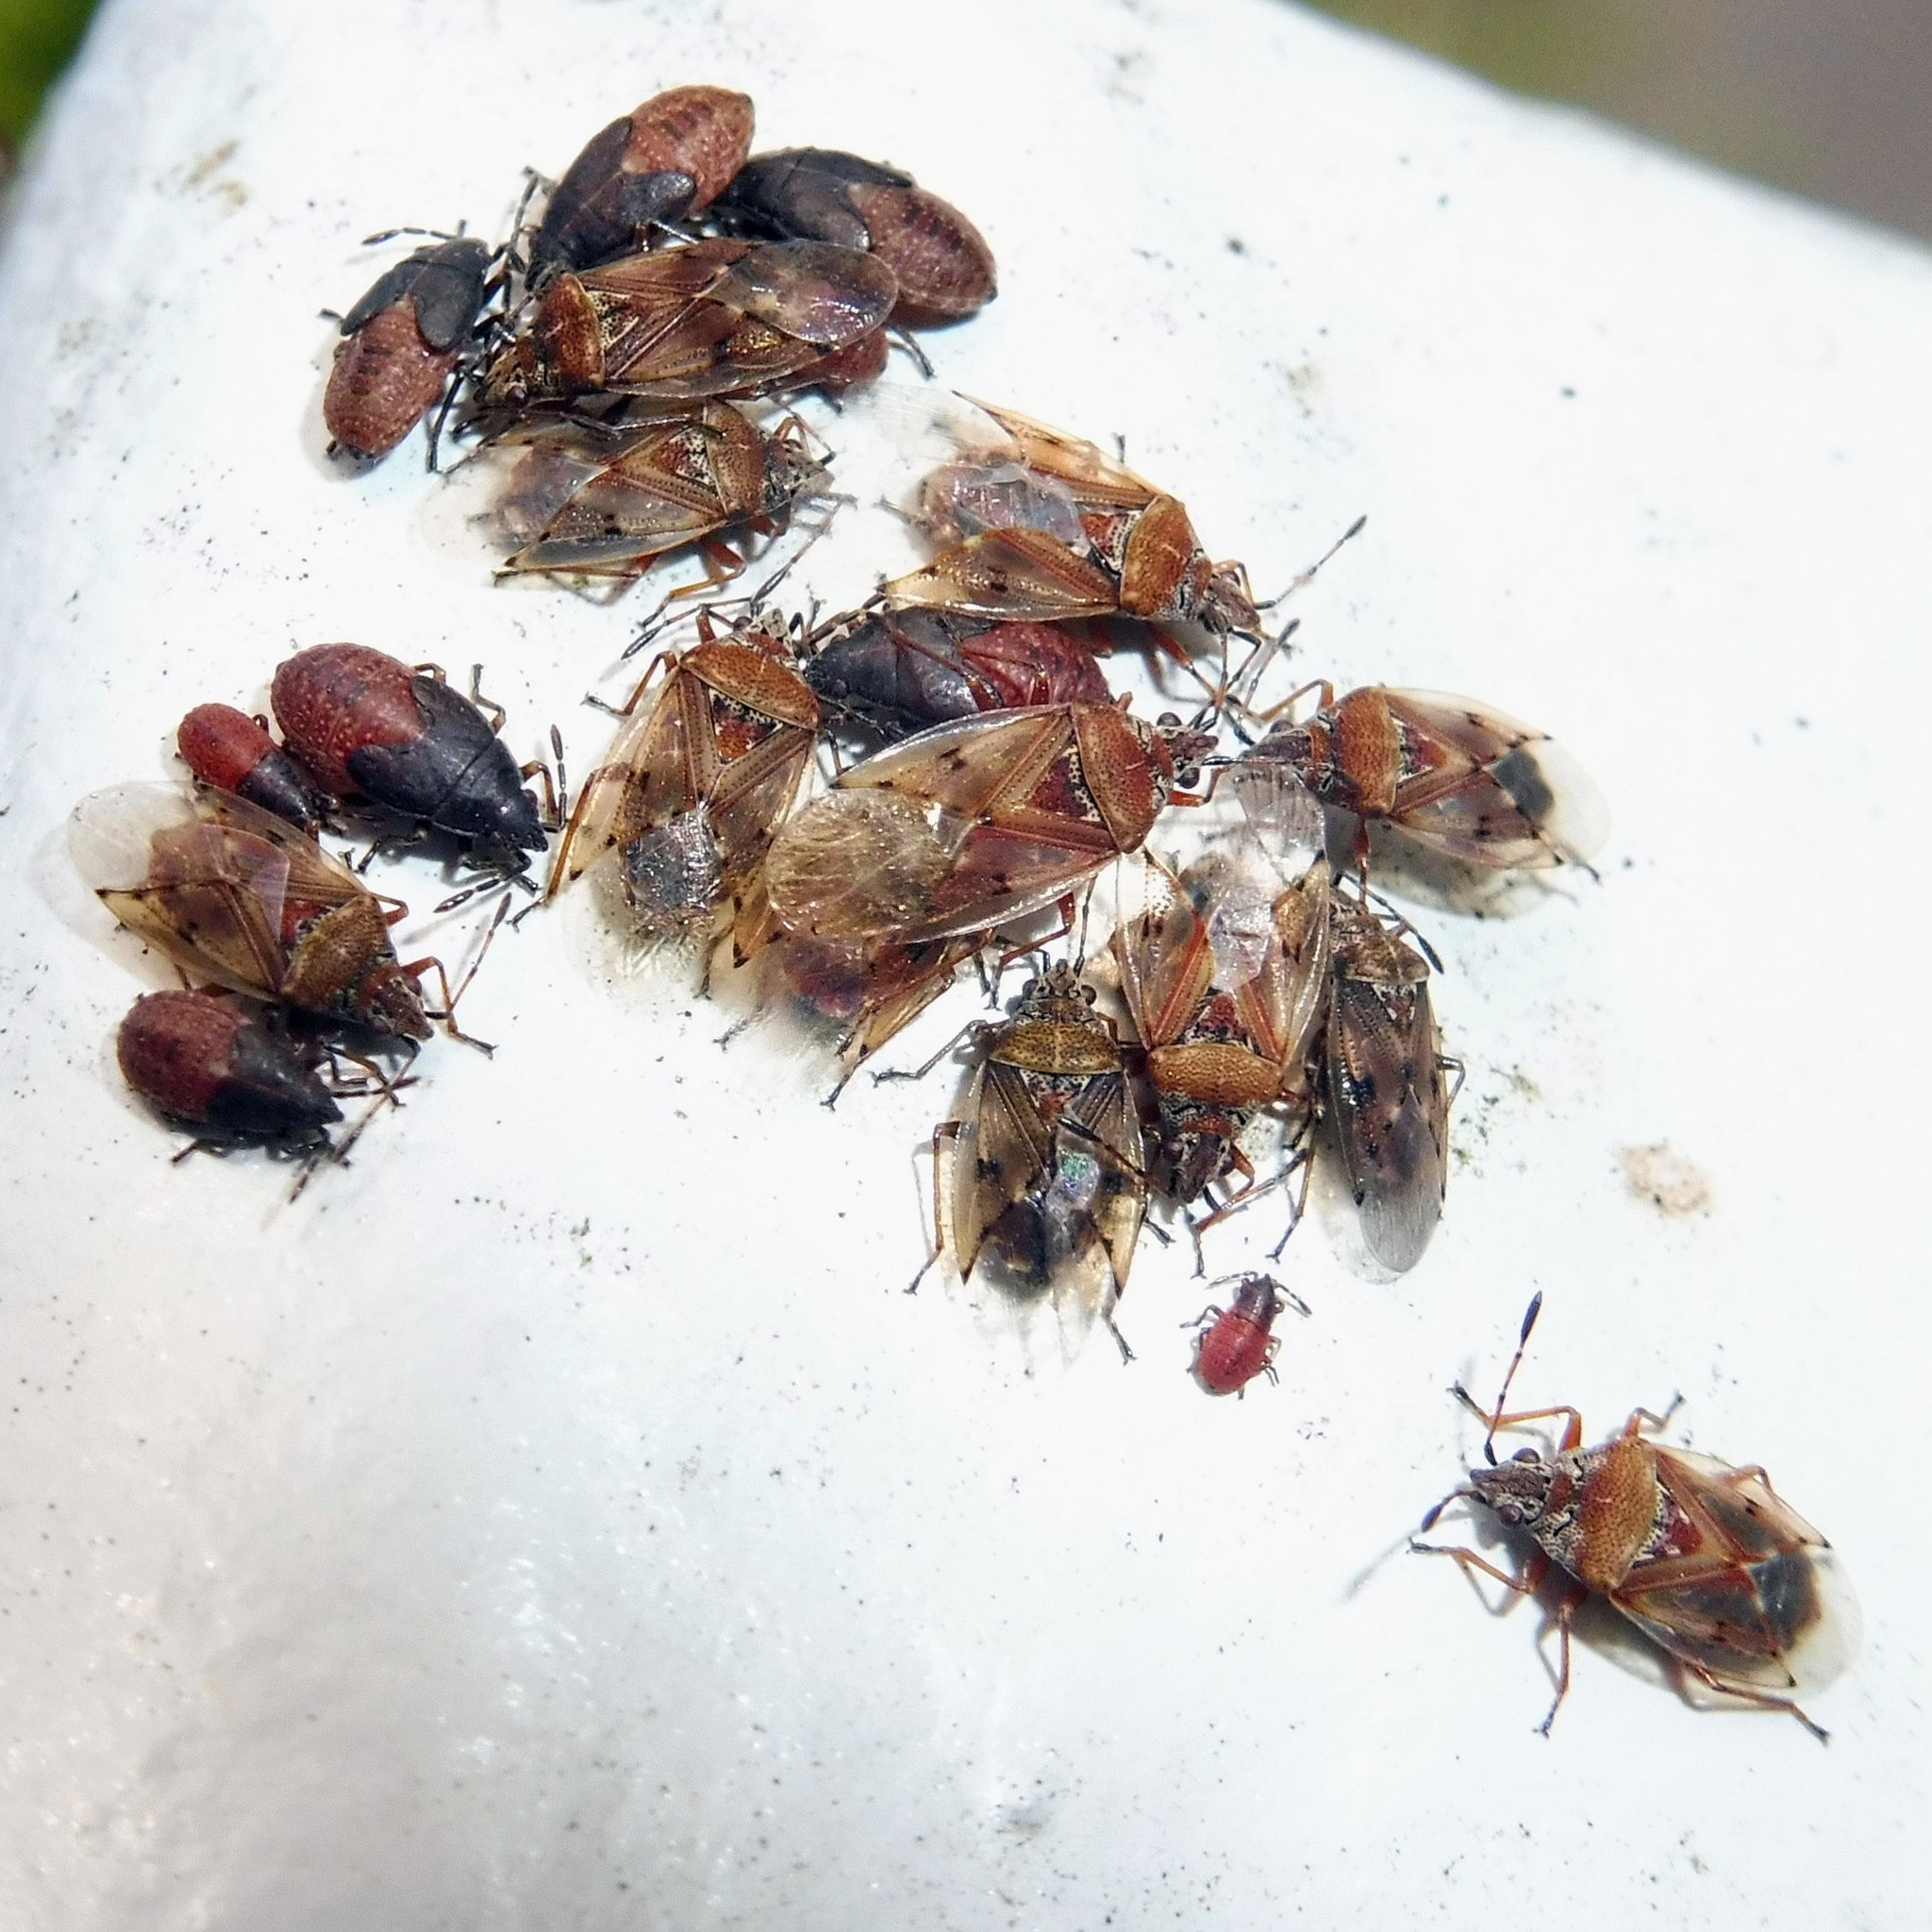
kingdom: Animalia
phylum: Arthropoda
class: Insecta
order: Hemiptera
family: Lygaeidae
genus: Kleidocerys
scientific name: Kleidocerys resedae
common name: Birch catkin bug
